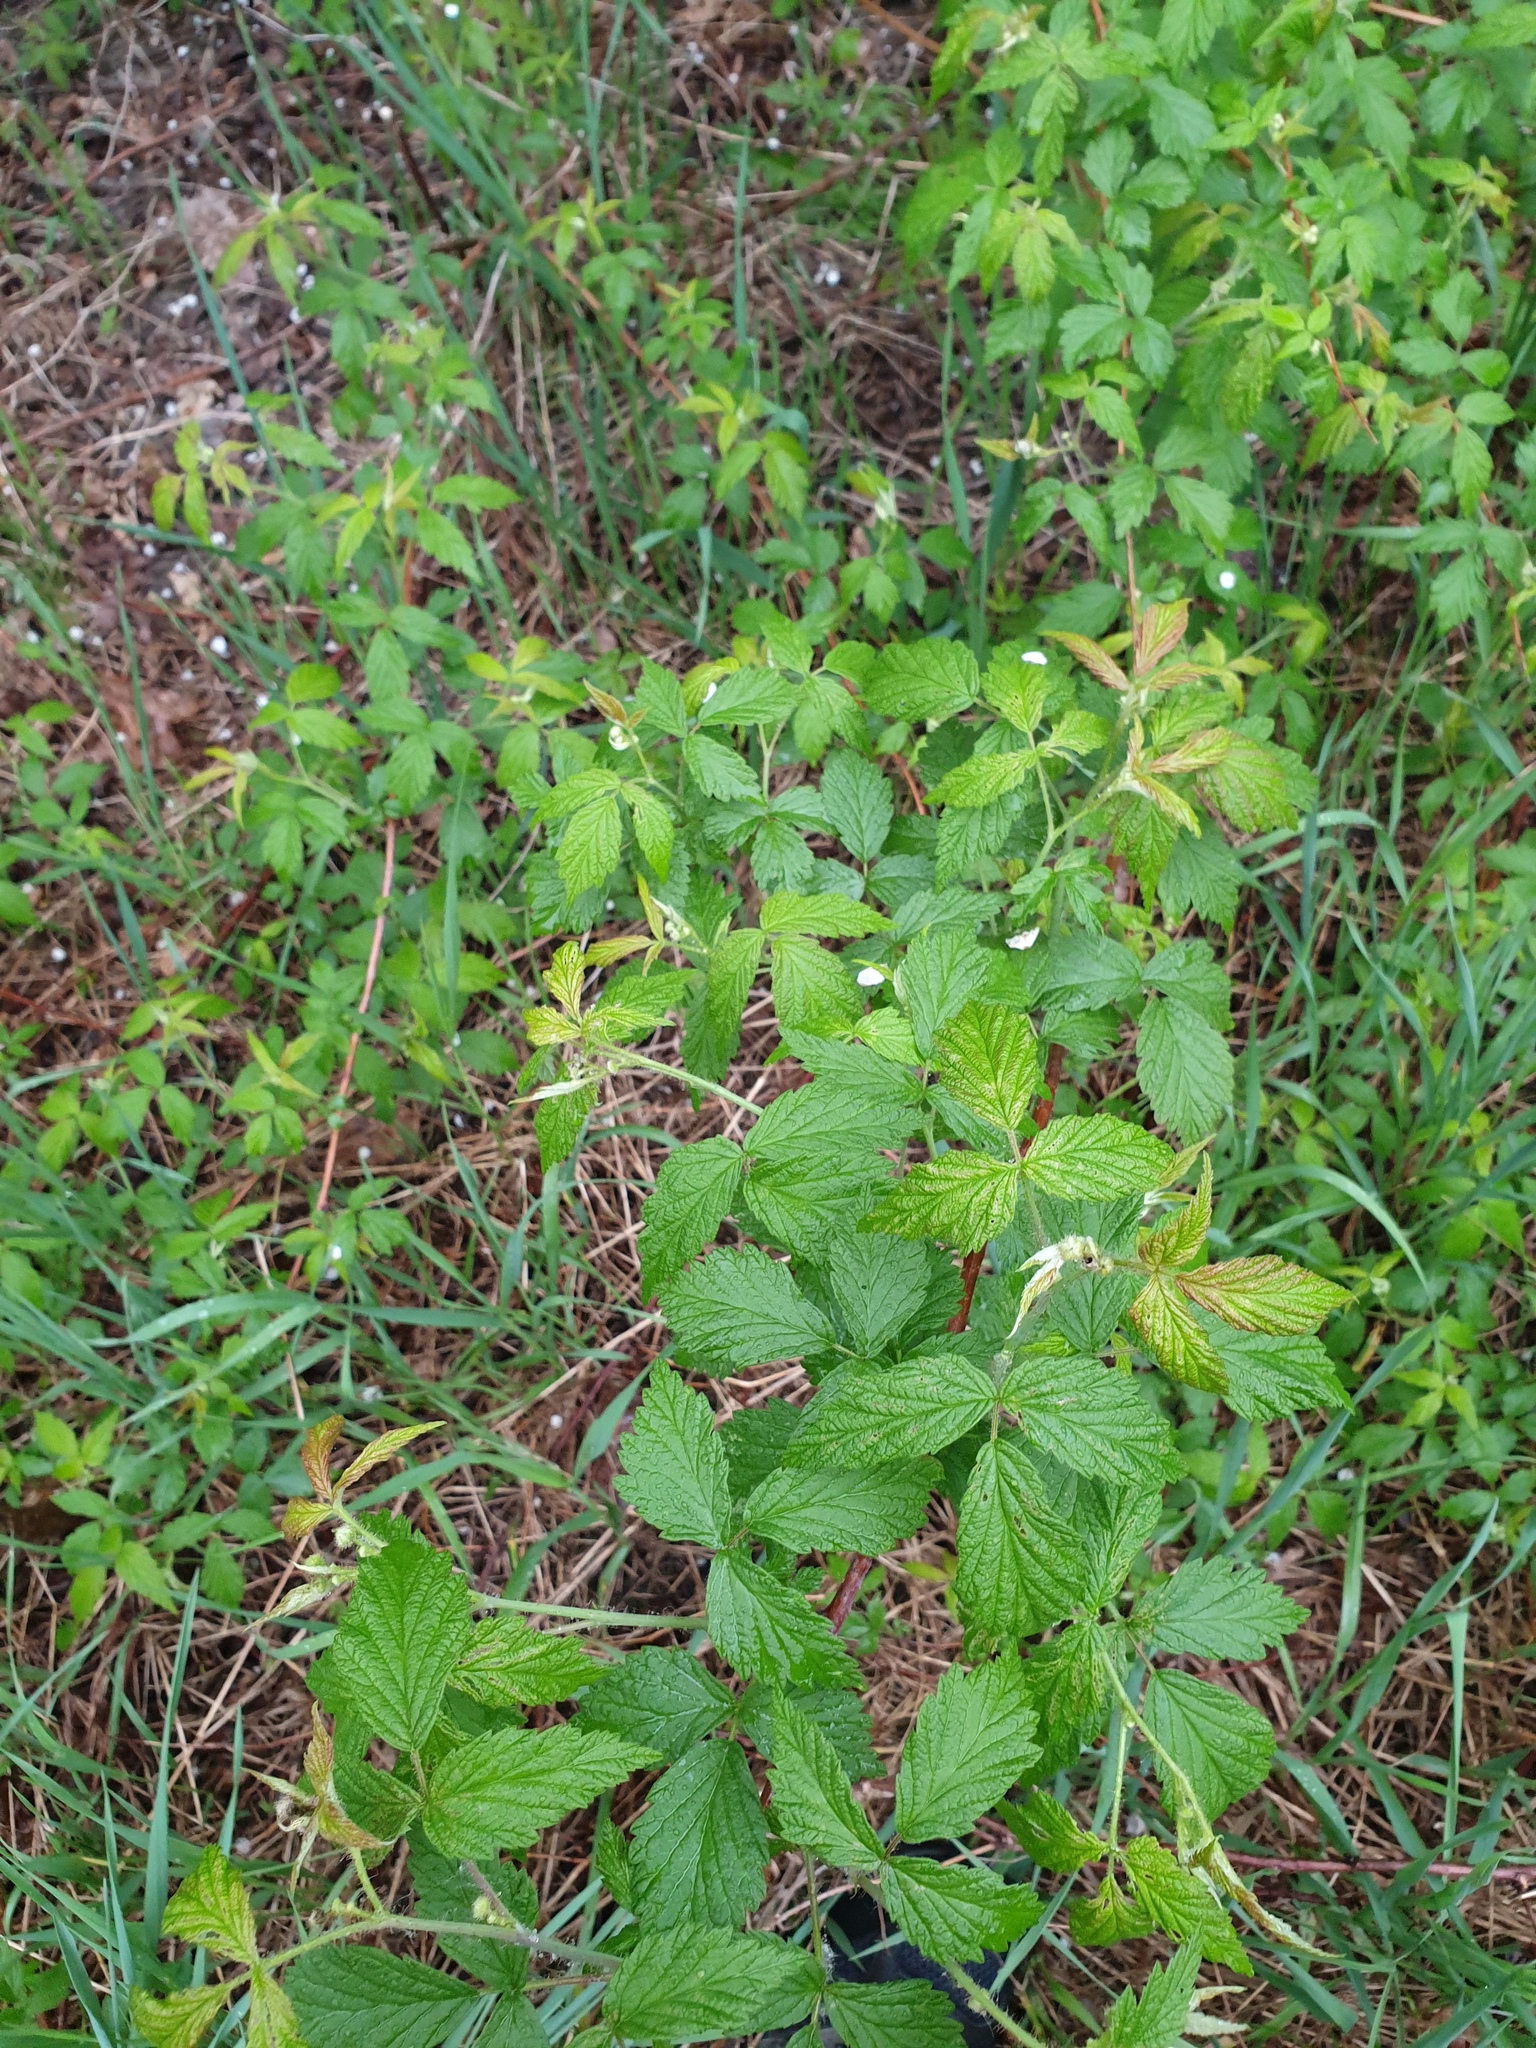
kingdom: Plantae
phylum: Tracheophyta
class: Magnoliopsida
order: Rosales
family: Rosaceae
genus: Rubus
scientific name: Rubus idaeus
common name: Raspberry
